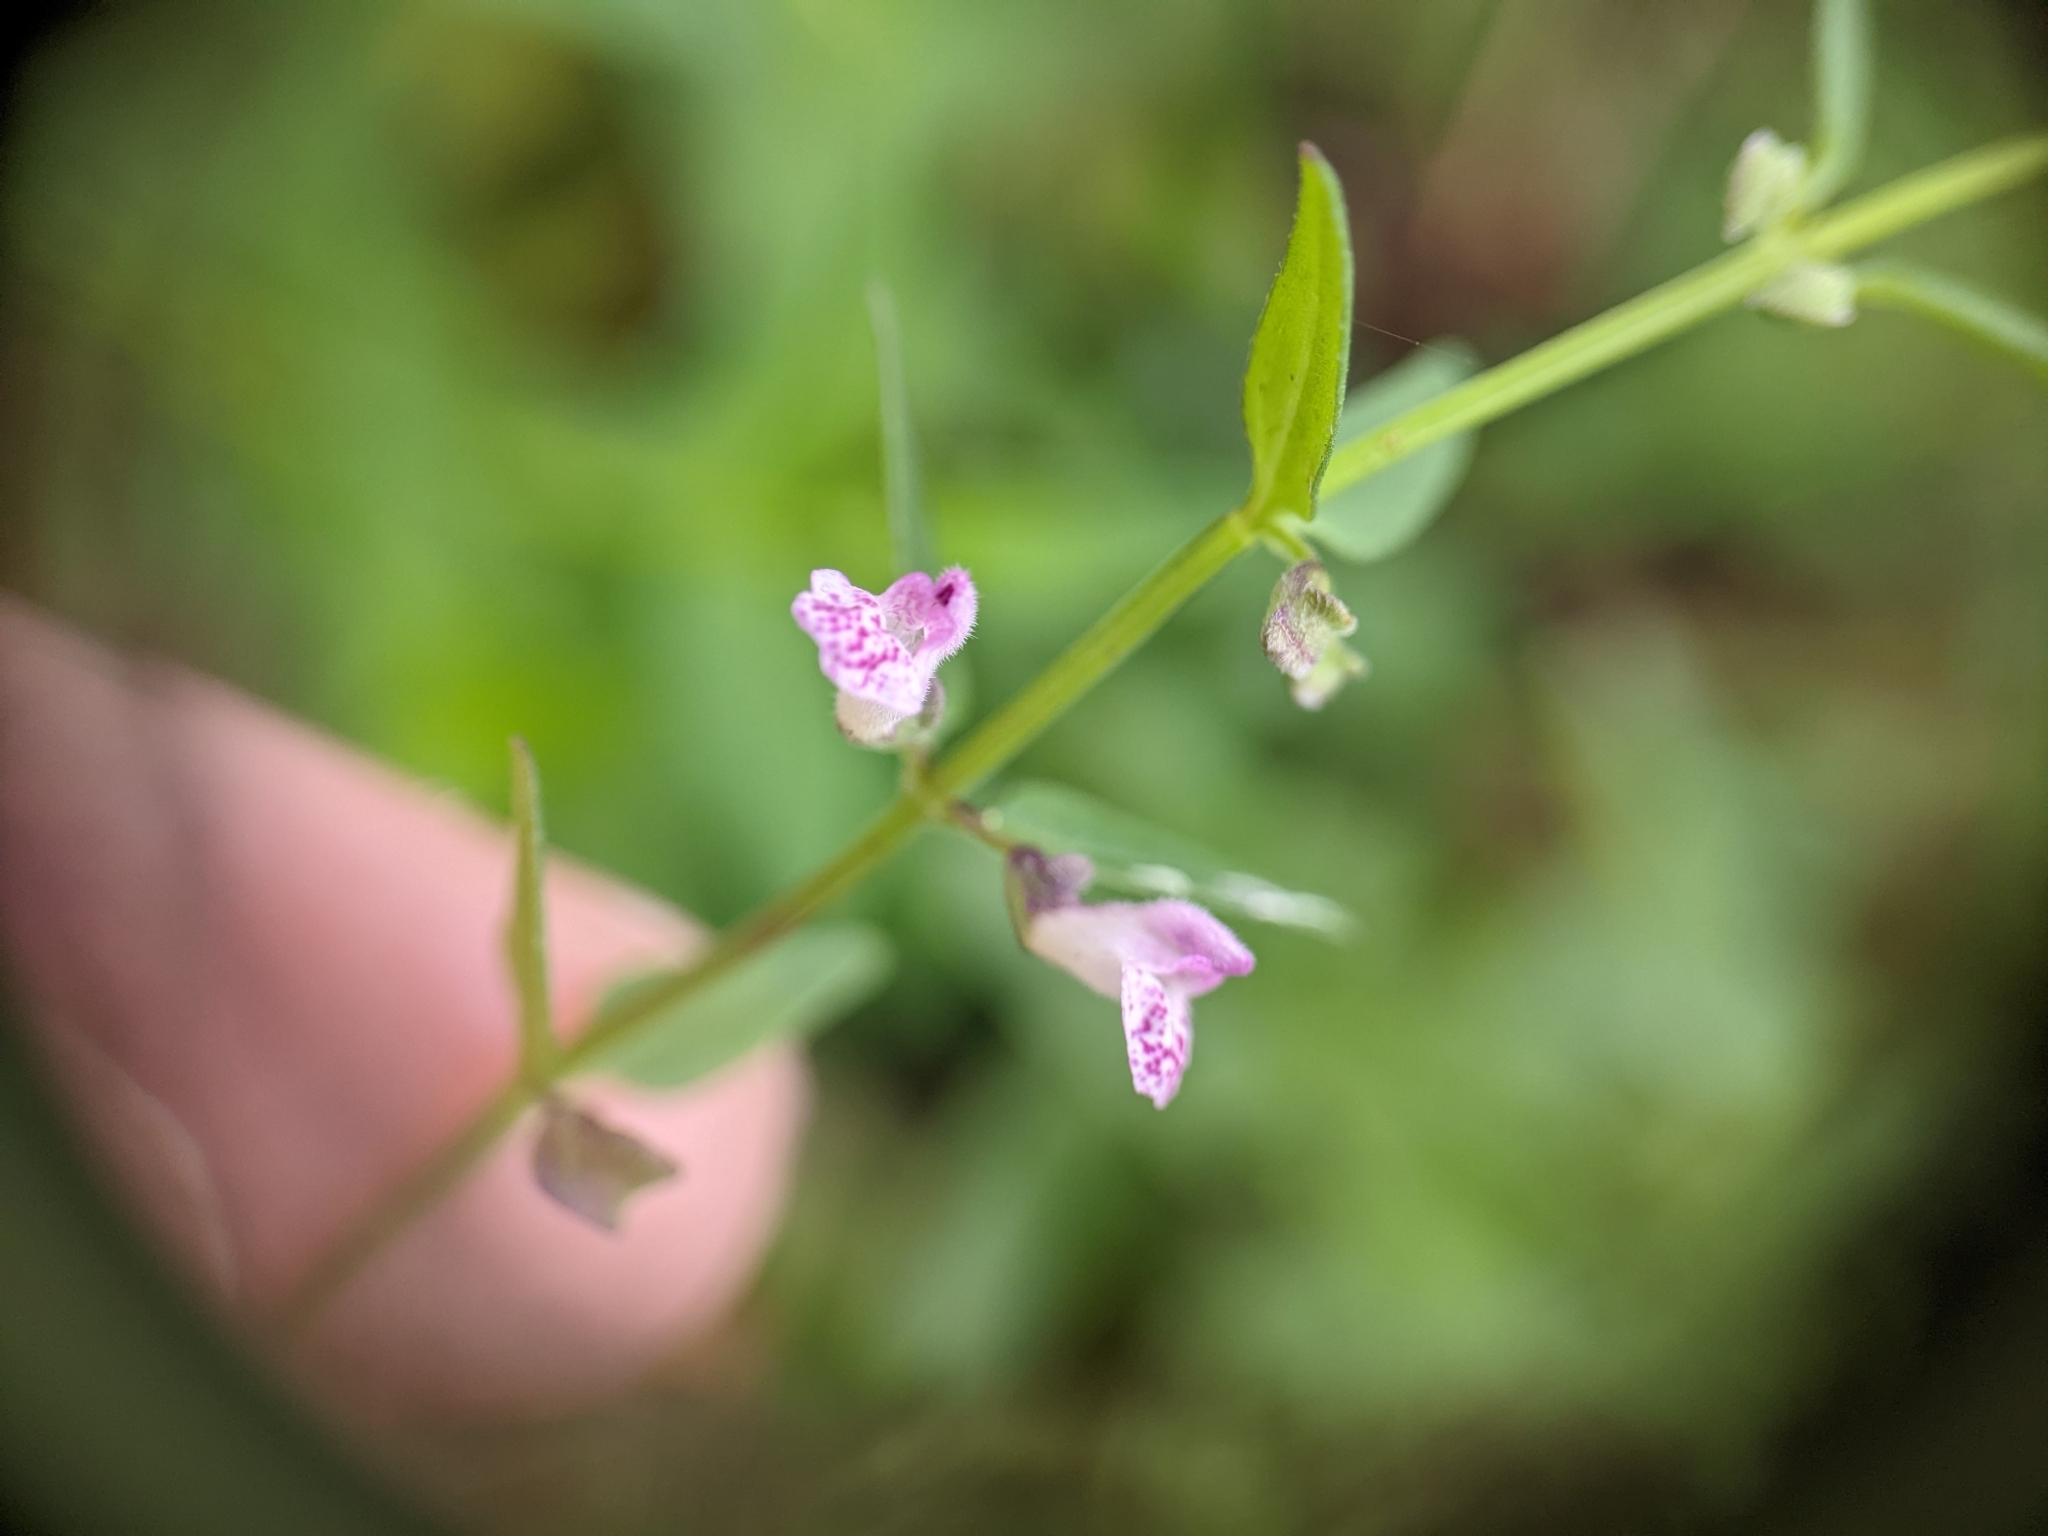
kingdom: Plantae
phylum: Tracheophyta
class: Magnoliopsida
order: Lamiales
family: Lamiaceae
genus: Scutellaria
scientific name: Scutellaria racemosa
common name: South american skullcap
